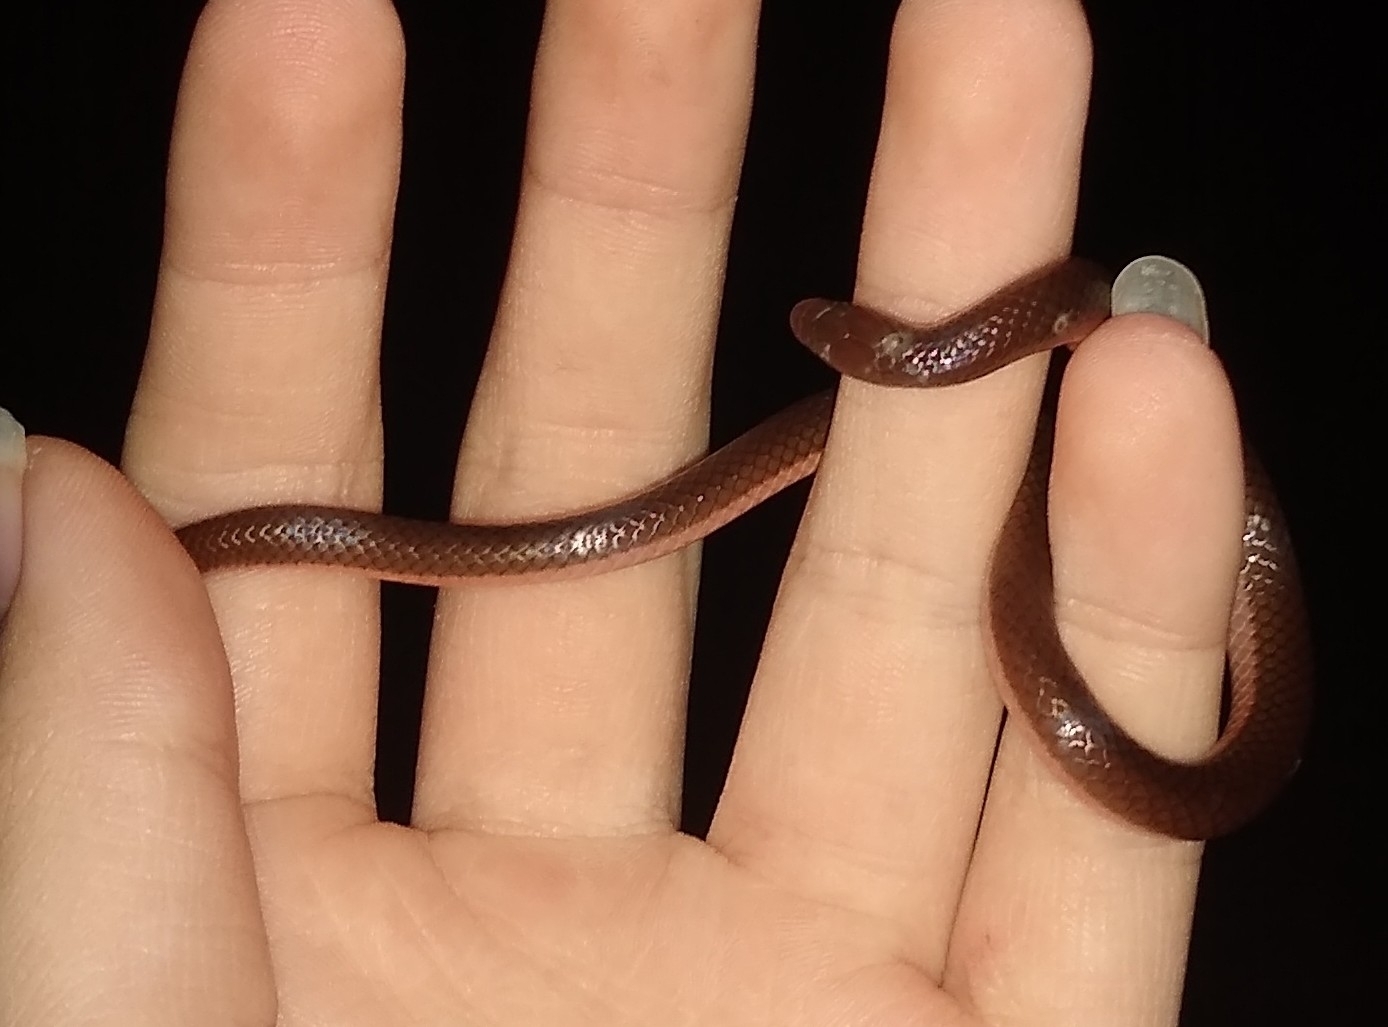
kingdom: Animalia
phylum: Chordata
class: Squamata
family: Colubridae
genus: Carphophis
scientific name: Carphophis amoenus
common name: Eastern worm snake
